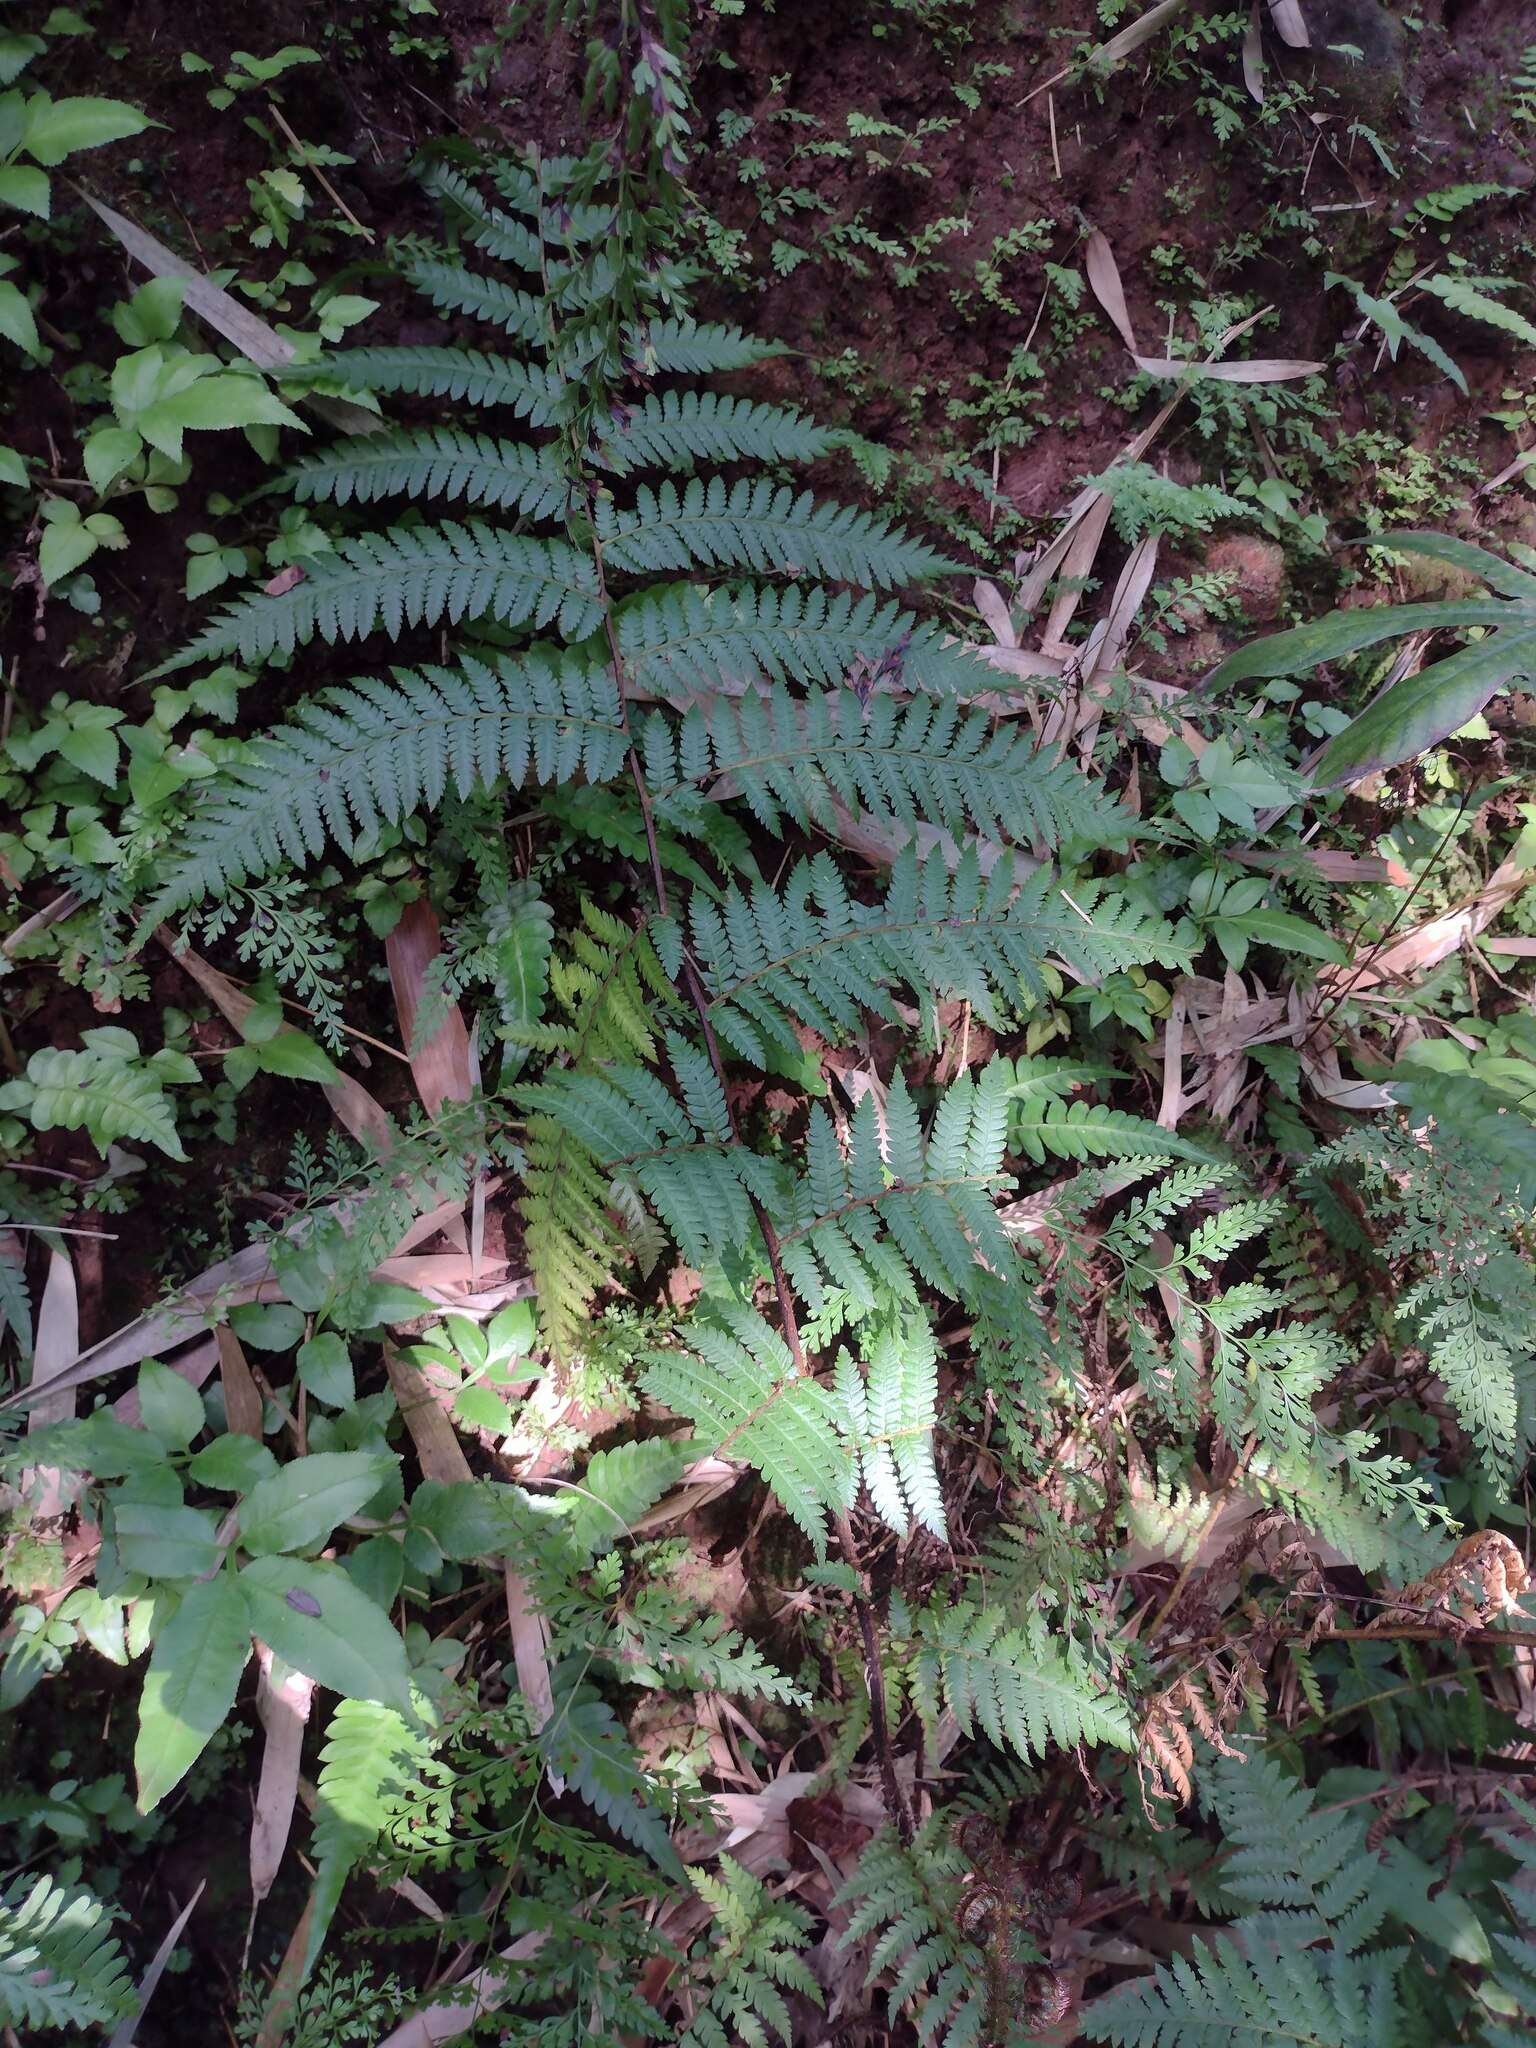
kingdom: Plantae
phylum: Tracheophyta
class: Polypodiopsida
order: Cyatheales
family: Cyatheaceae
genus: Sphaeropteris
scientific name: Sphaeropteris cooperi
